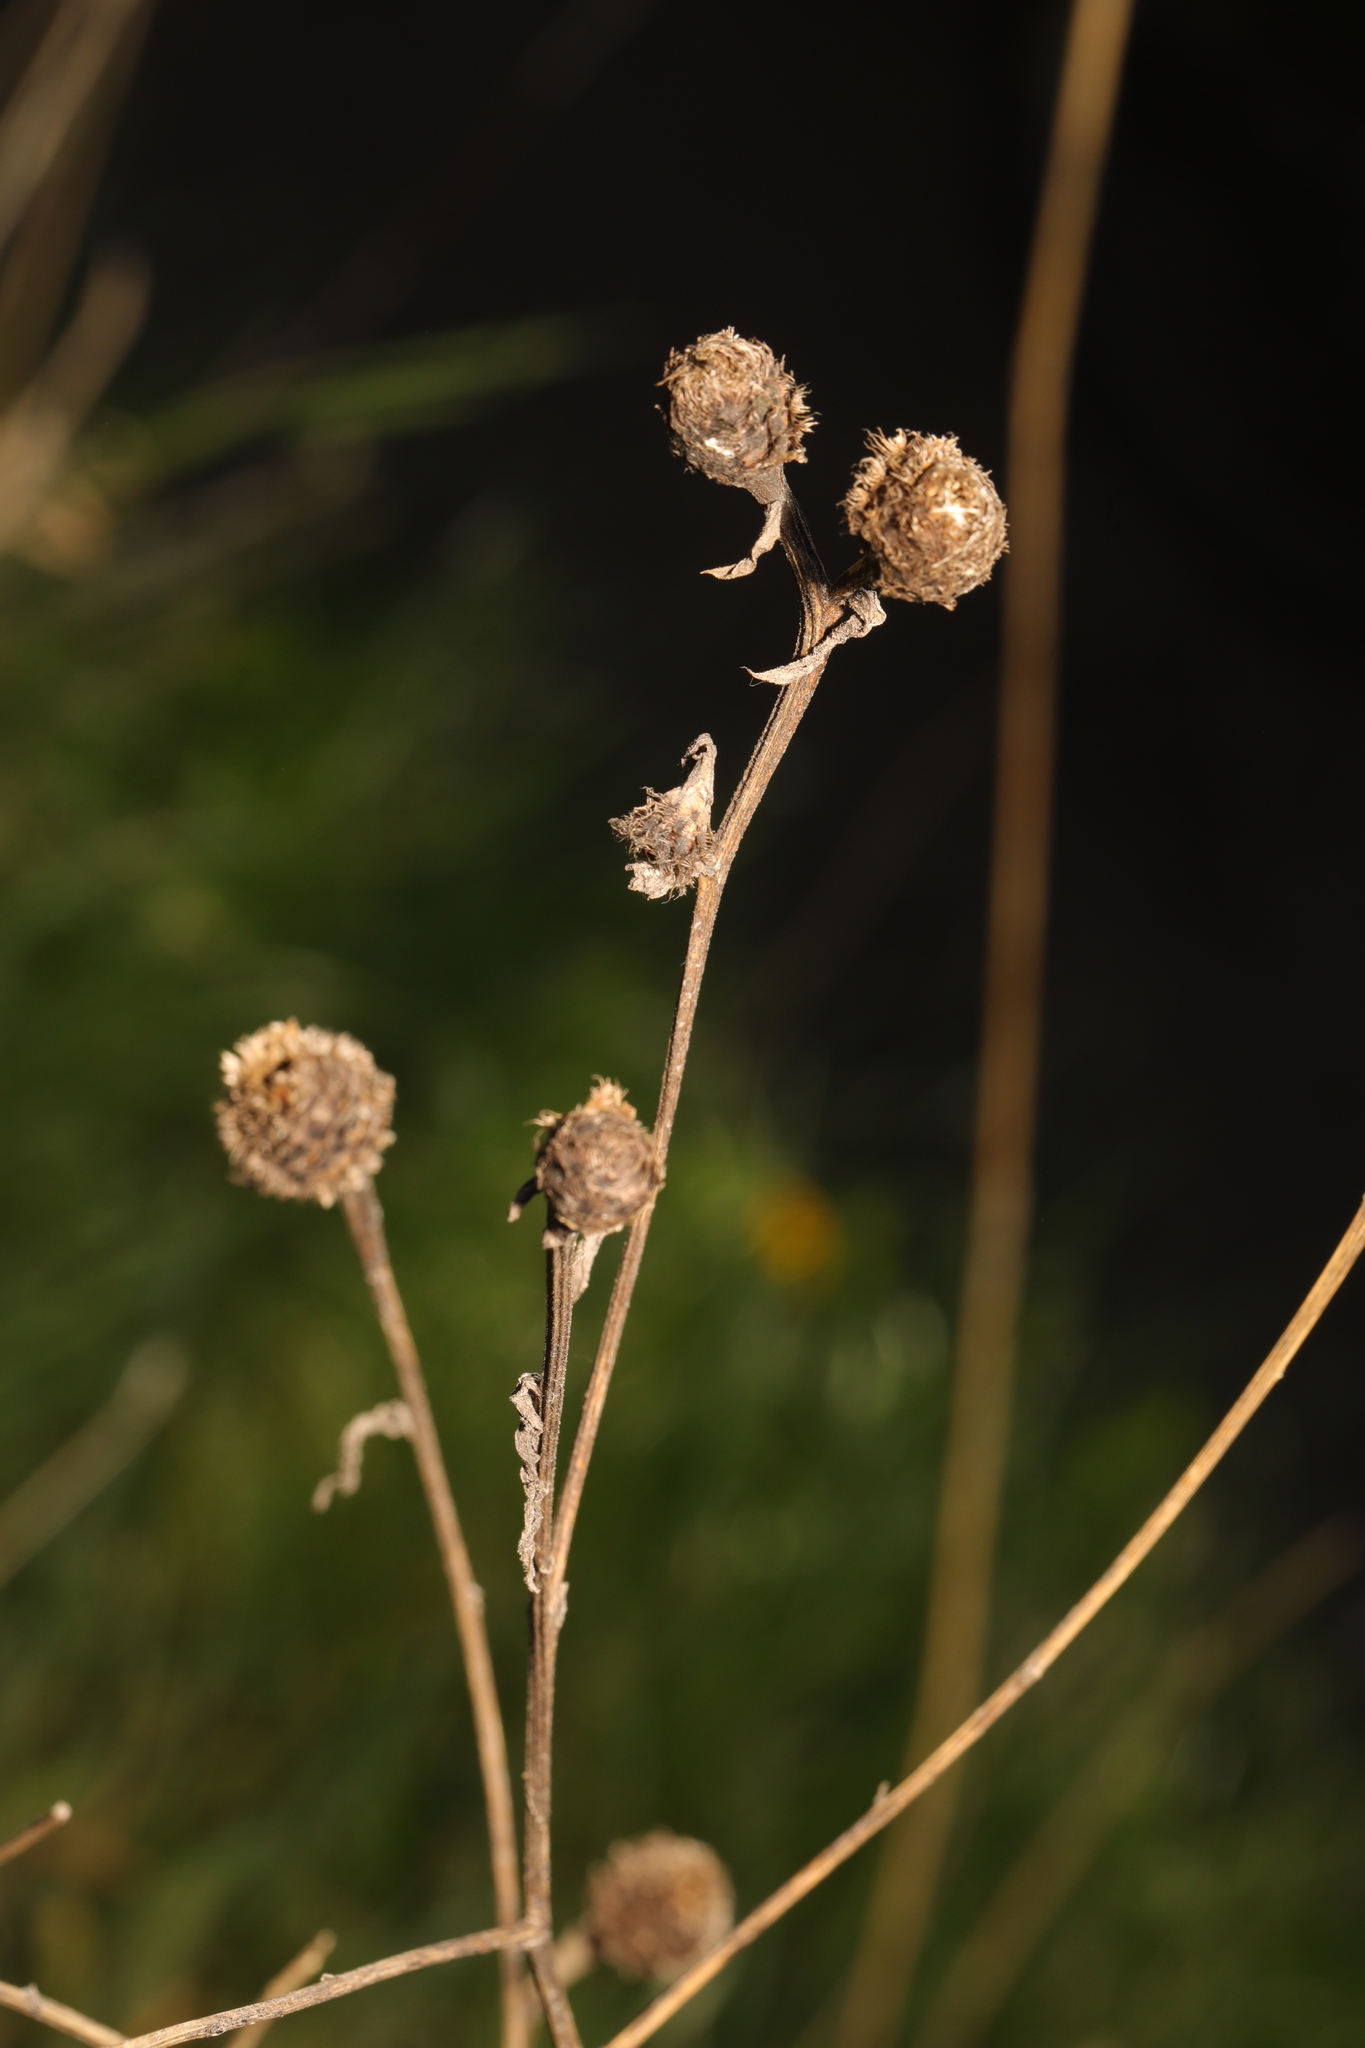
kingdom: Plantae
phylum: Tracheophyta
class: Magnoliopsida
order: Asterales
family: Asteraceae
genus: Centaurea
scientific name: Centaurea nigra
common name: Lesser knapweed
